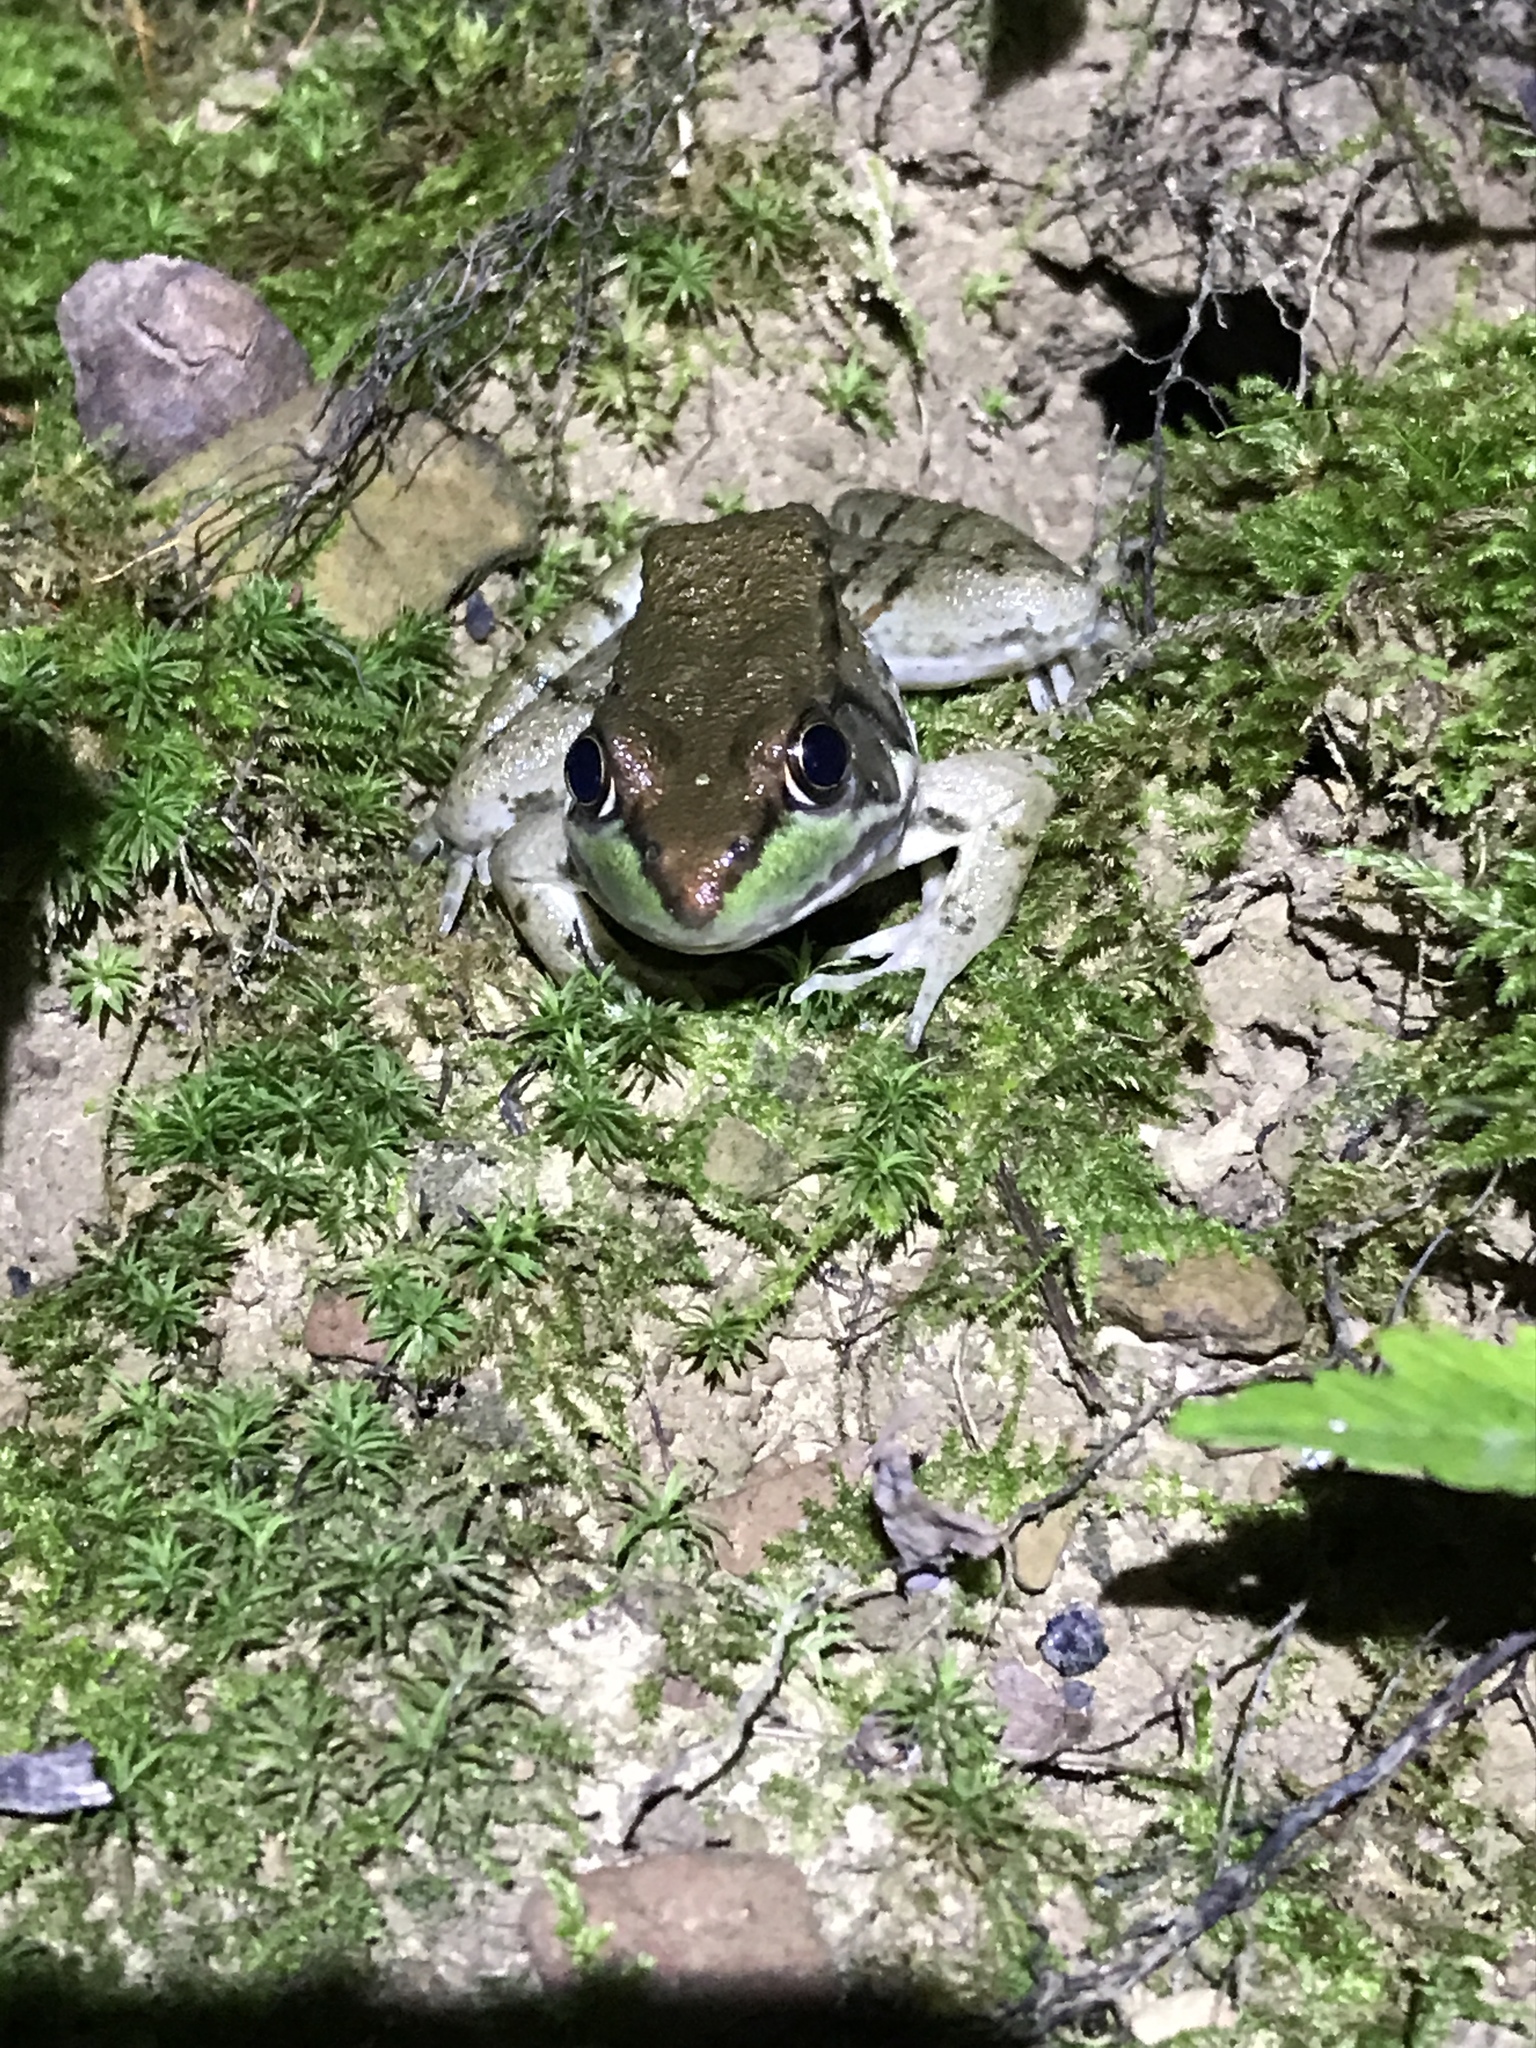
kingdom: Animalia
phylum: Chordata
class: Amphibia
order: Anura
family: Ranidae
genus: Lithobates
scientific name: Lithobates clamitans
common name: Green frog
